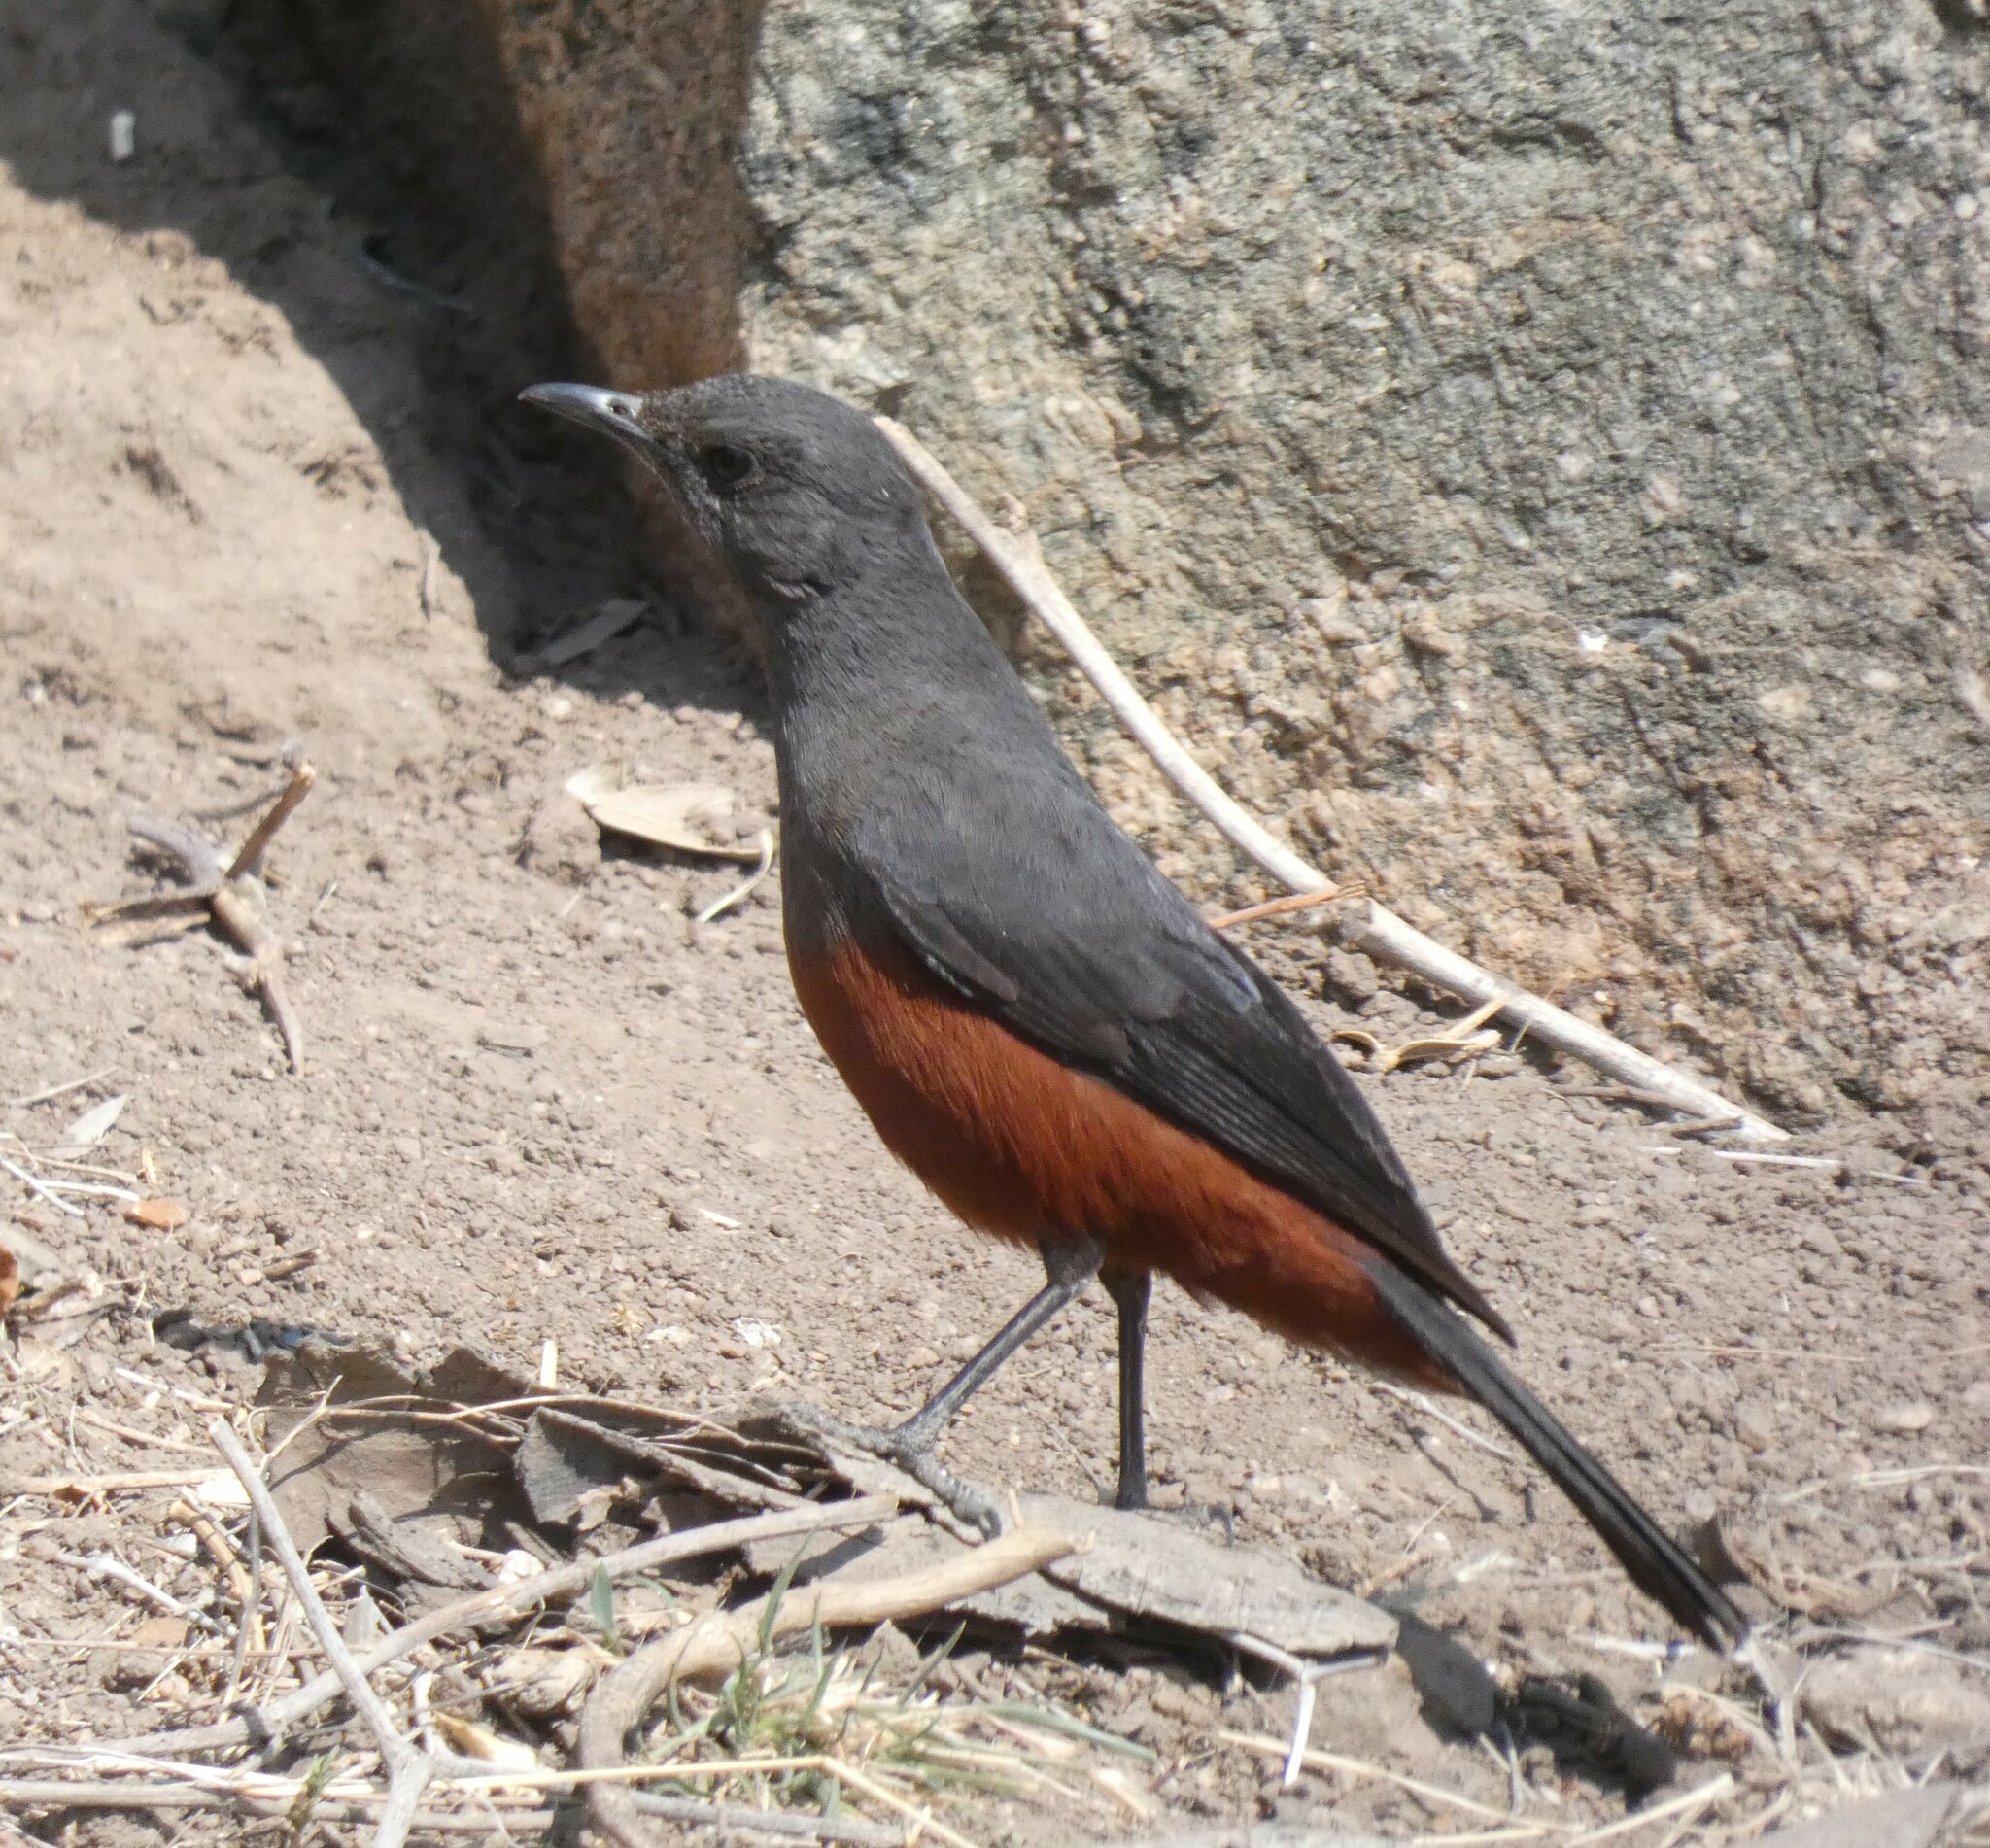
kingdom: Animalia
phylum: Chordata
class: Aves
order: Passeriformes
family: Muscicapidae
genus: Thamnolaea
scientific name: Thamnolaea cinnamomeiventris
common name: Mocking cliff chat
